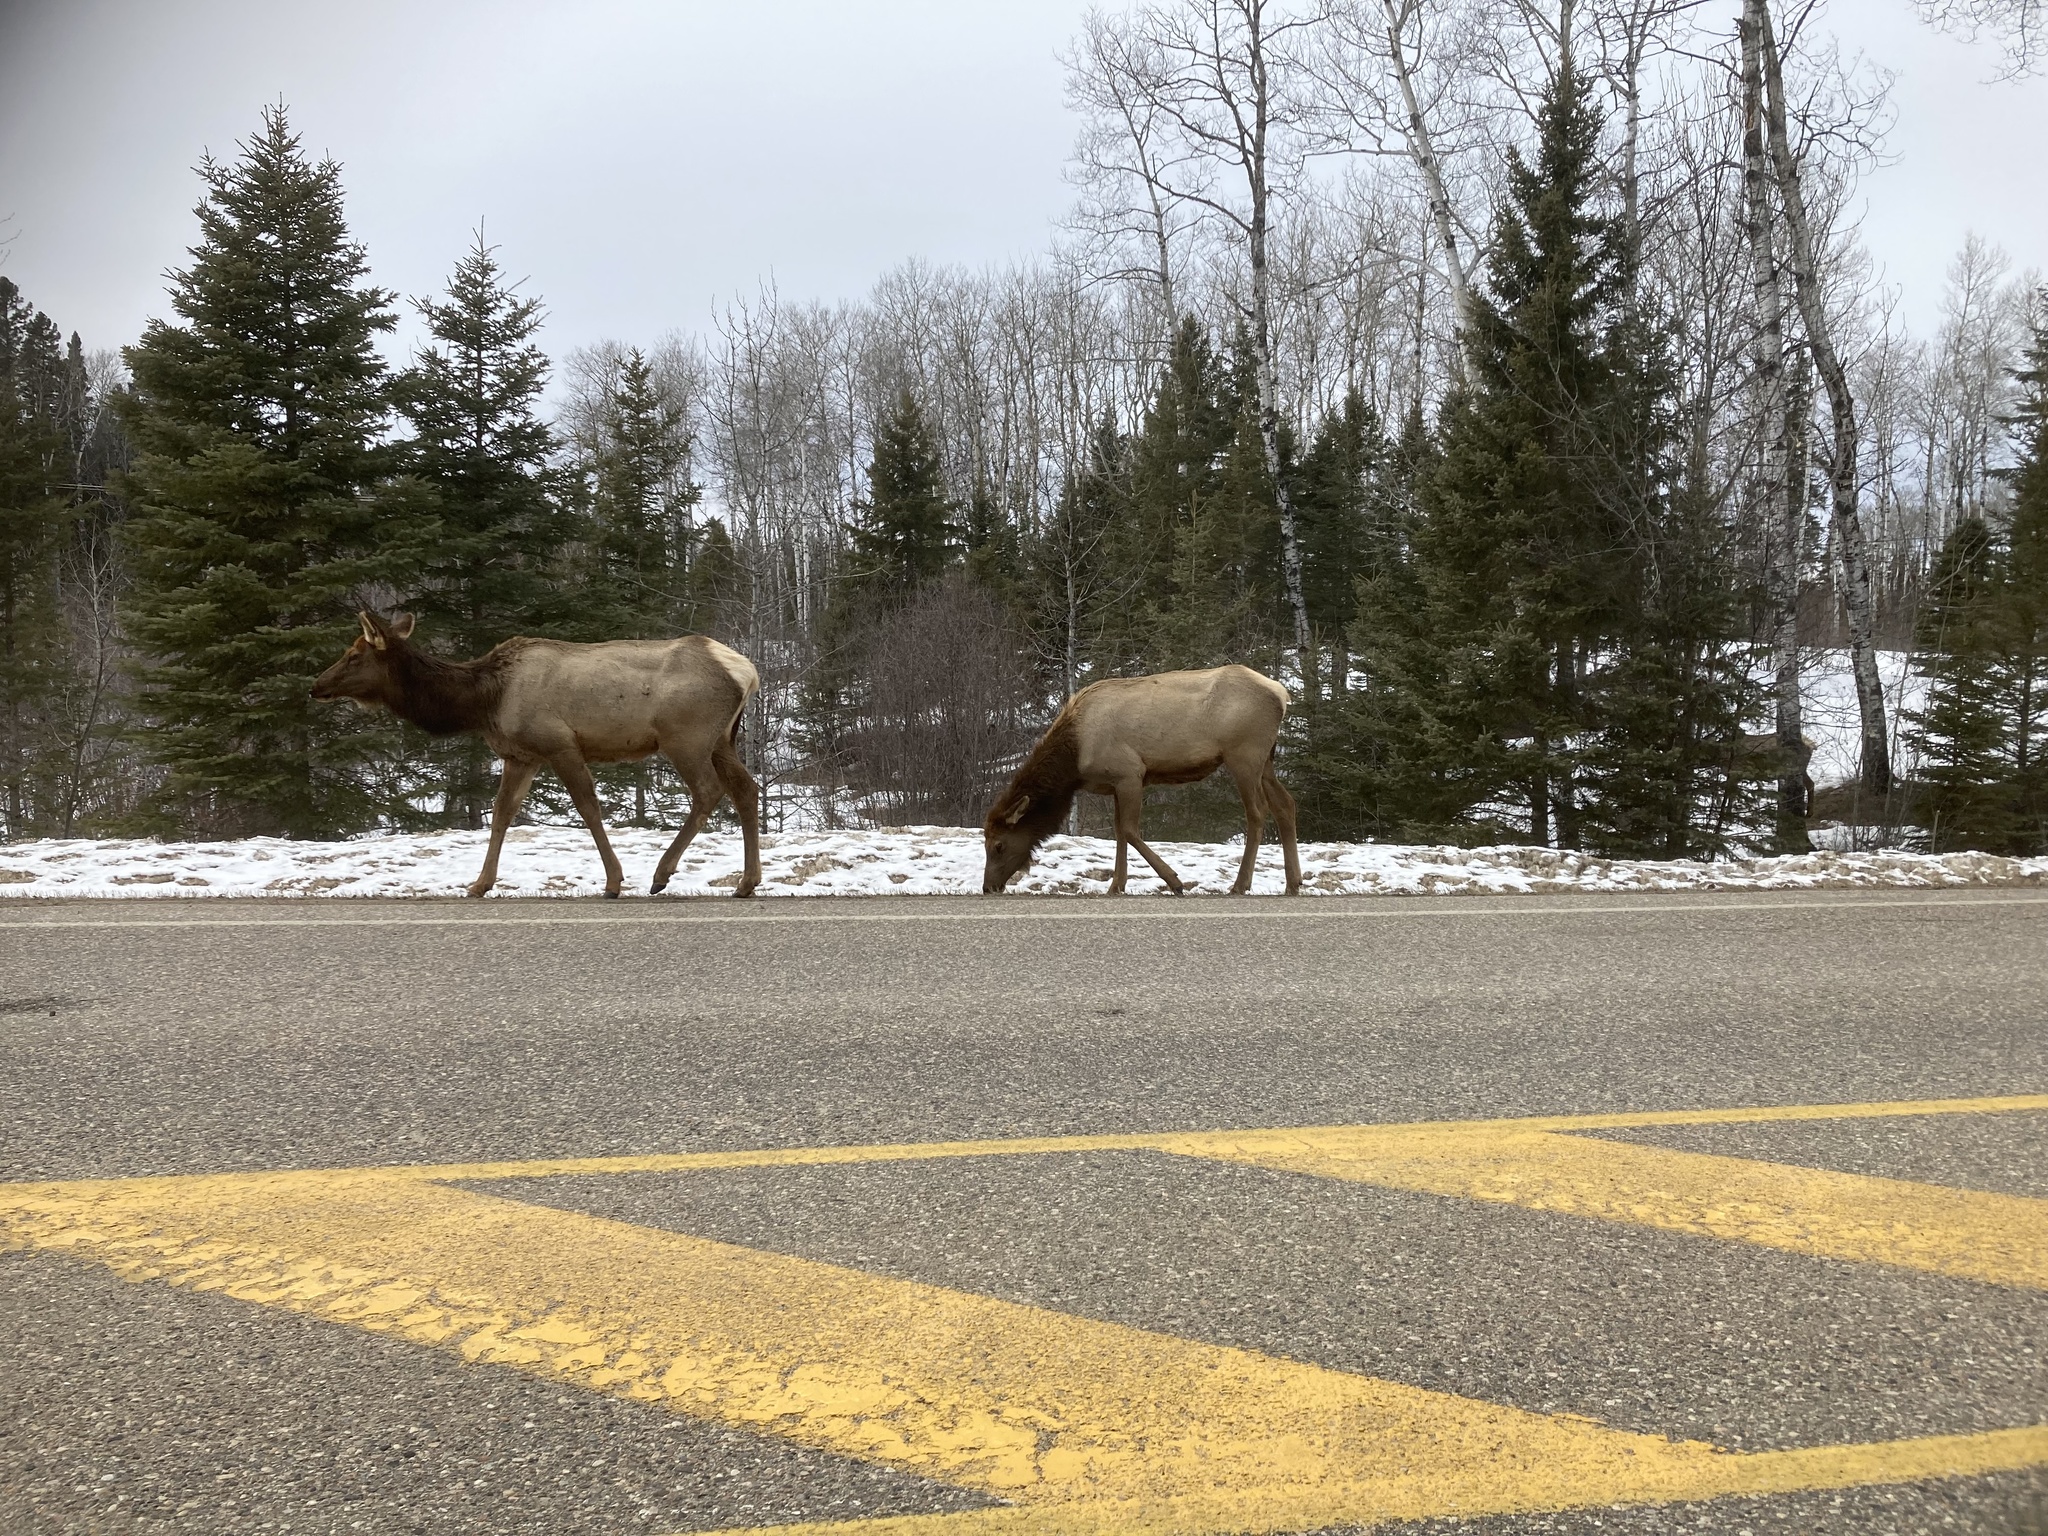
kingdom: Animalia
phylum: Chordata
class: Mammalia
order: Artiodactyla
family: Cervidae
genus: Cervus
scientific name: Cervus elaphus
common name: Red deer
